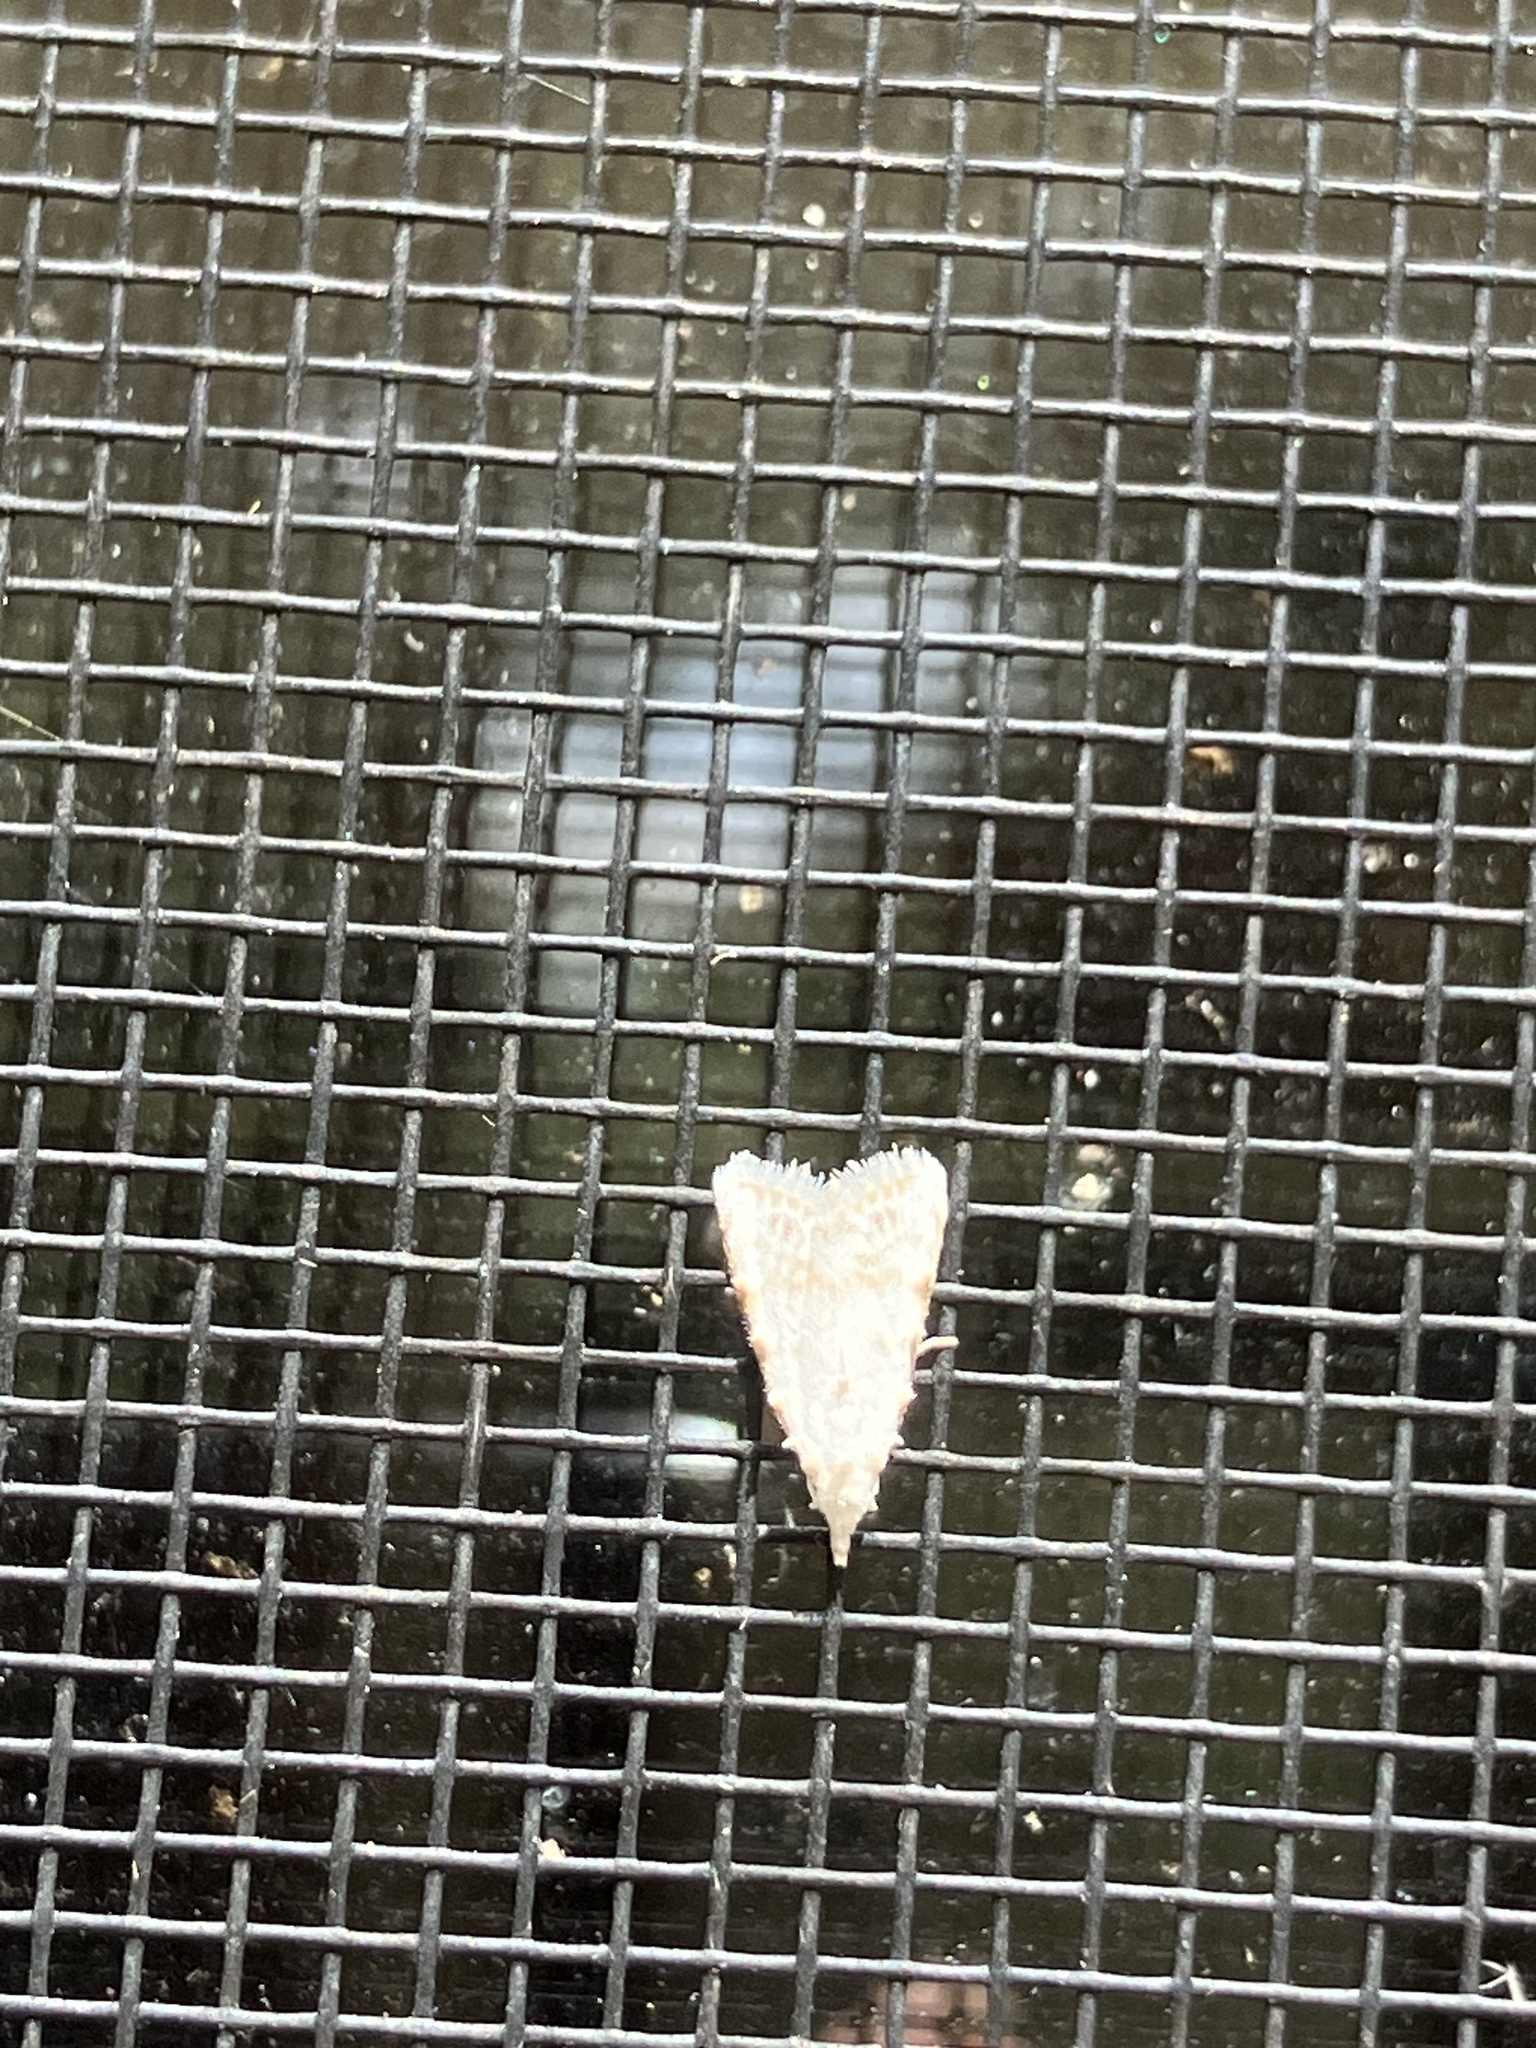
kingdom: Animalia
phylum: Arthropoda
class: Insecta
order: Lepidoptera
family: Nolidae
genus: Nola
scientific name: Nola cereella
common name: Sorghum webworm moth
